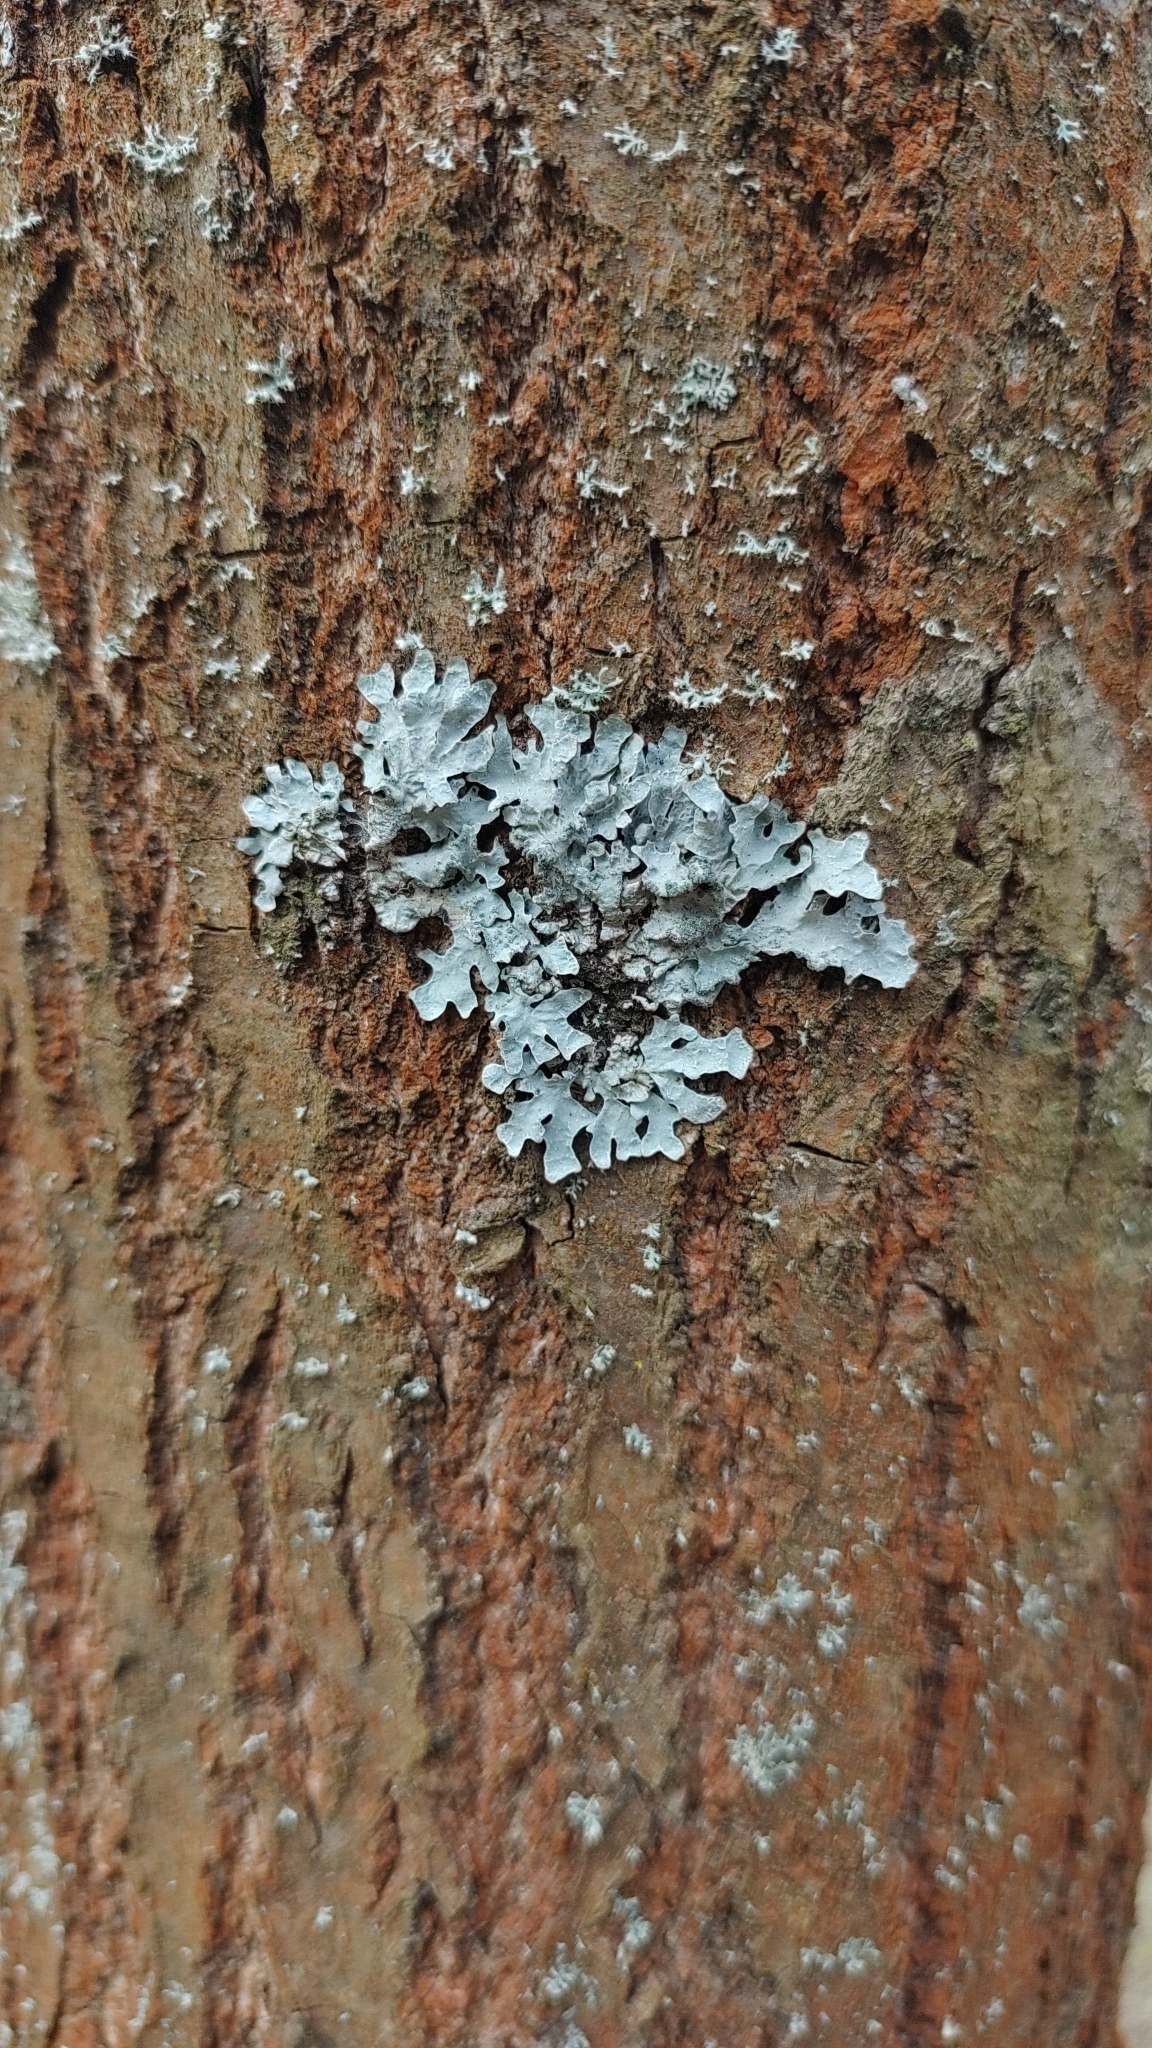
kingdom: Fungi
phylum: Ascomycota
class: Lecanoromycetes
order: Lecanorales
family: Parmeliaceae
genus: Parmelia
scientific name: Parmelia sulcata
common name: Netted shield lichen
